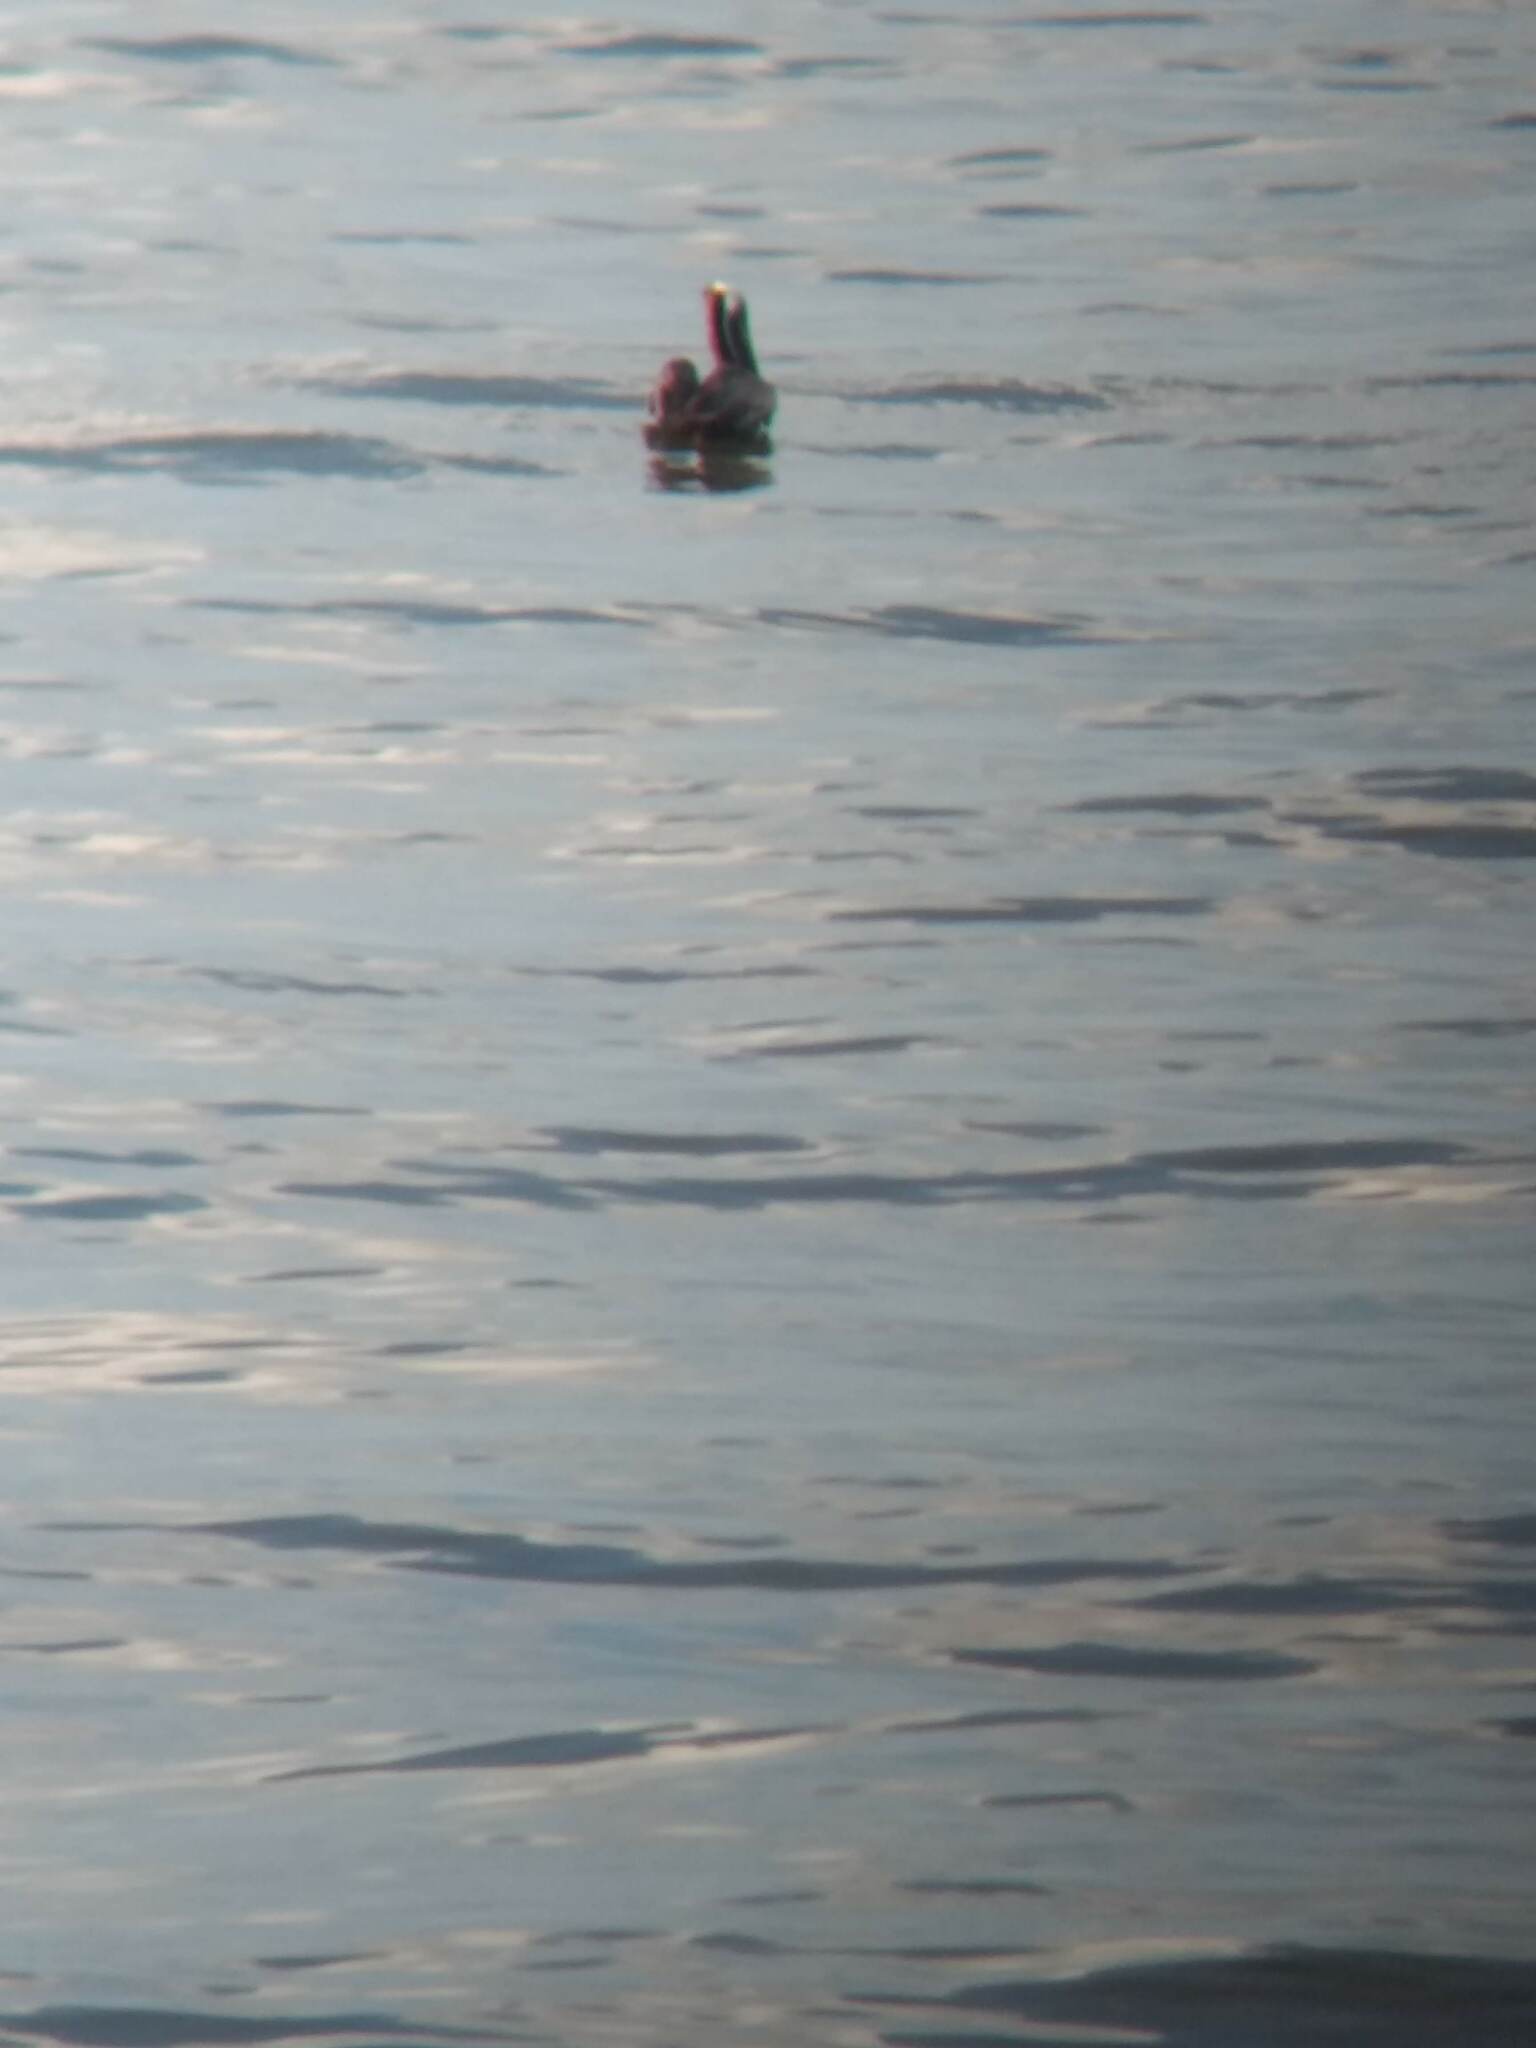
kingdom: Animalia
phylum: Chordata
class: Aves
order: Pelecaniformes
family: Pelecanidae
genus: Pelecanus
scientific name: Pelecanus occidentalis
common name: Brown pelican
